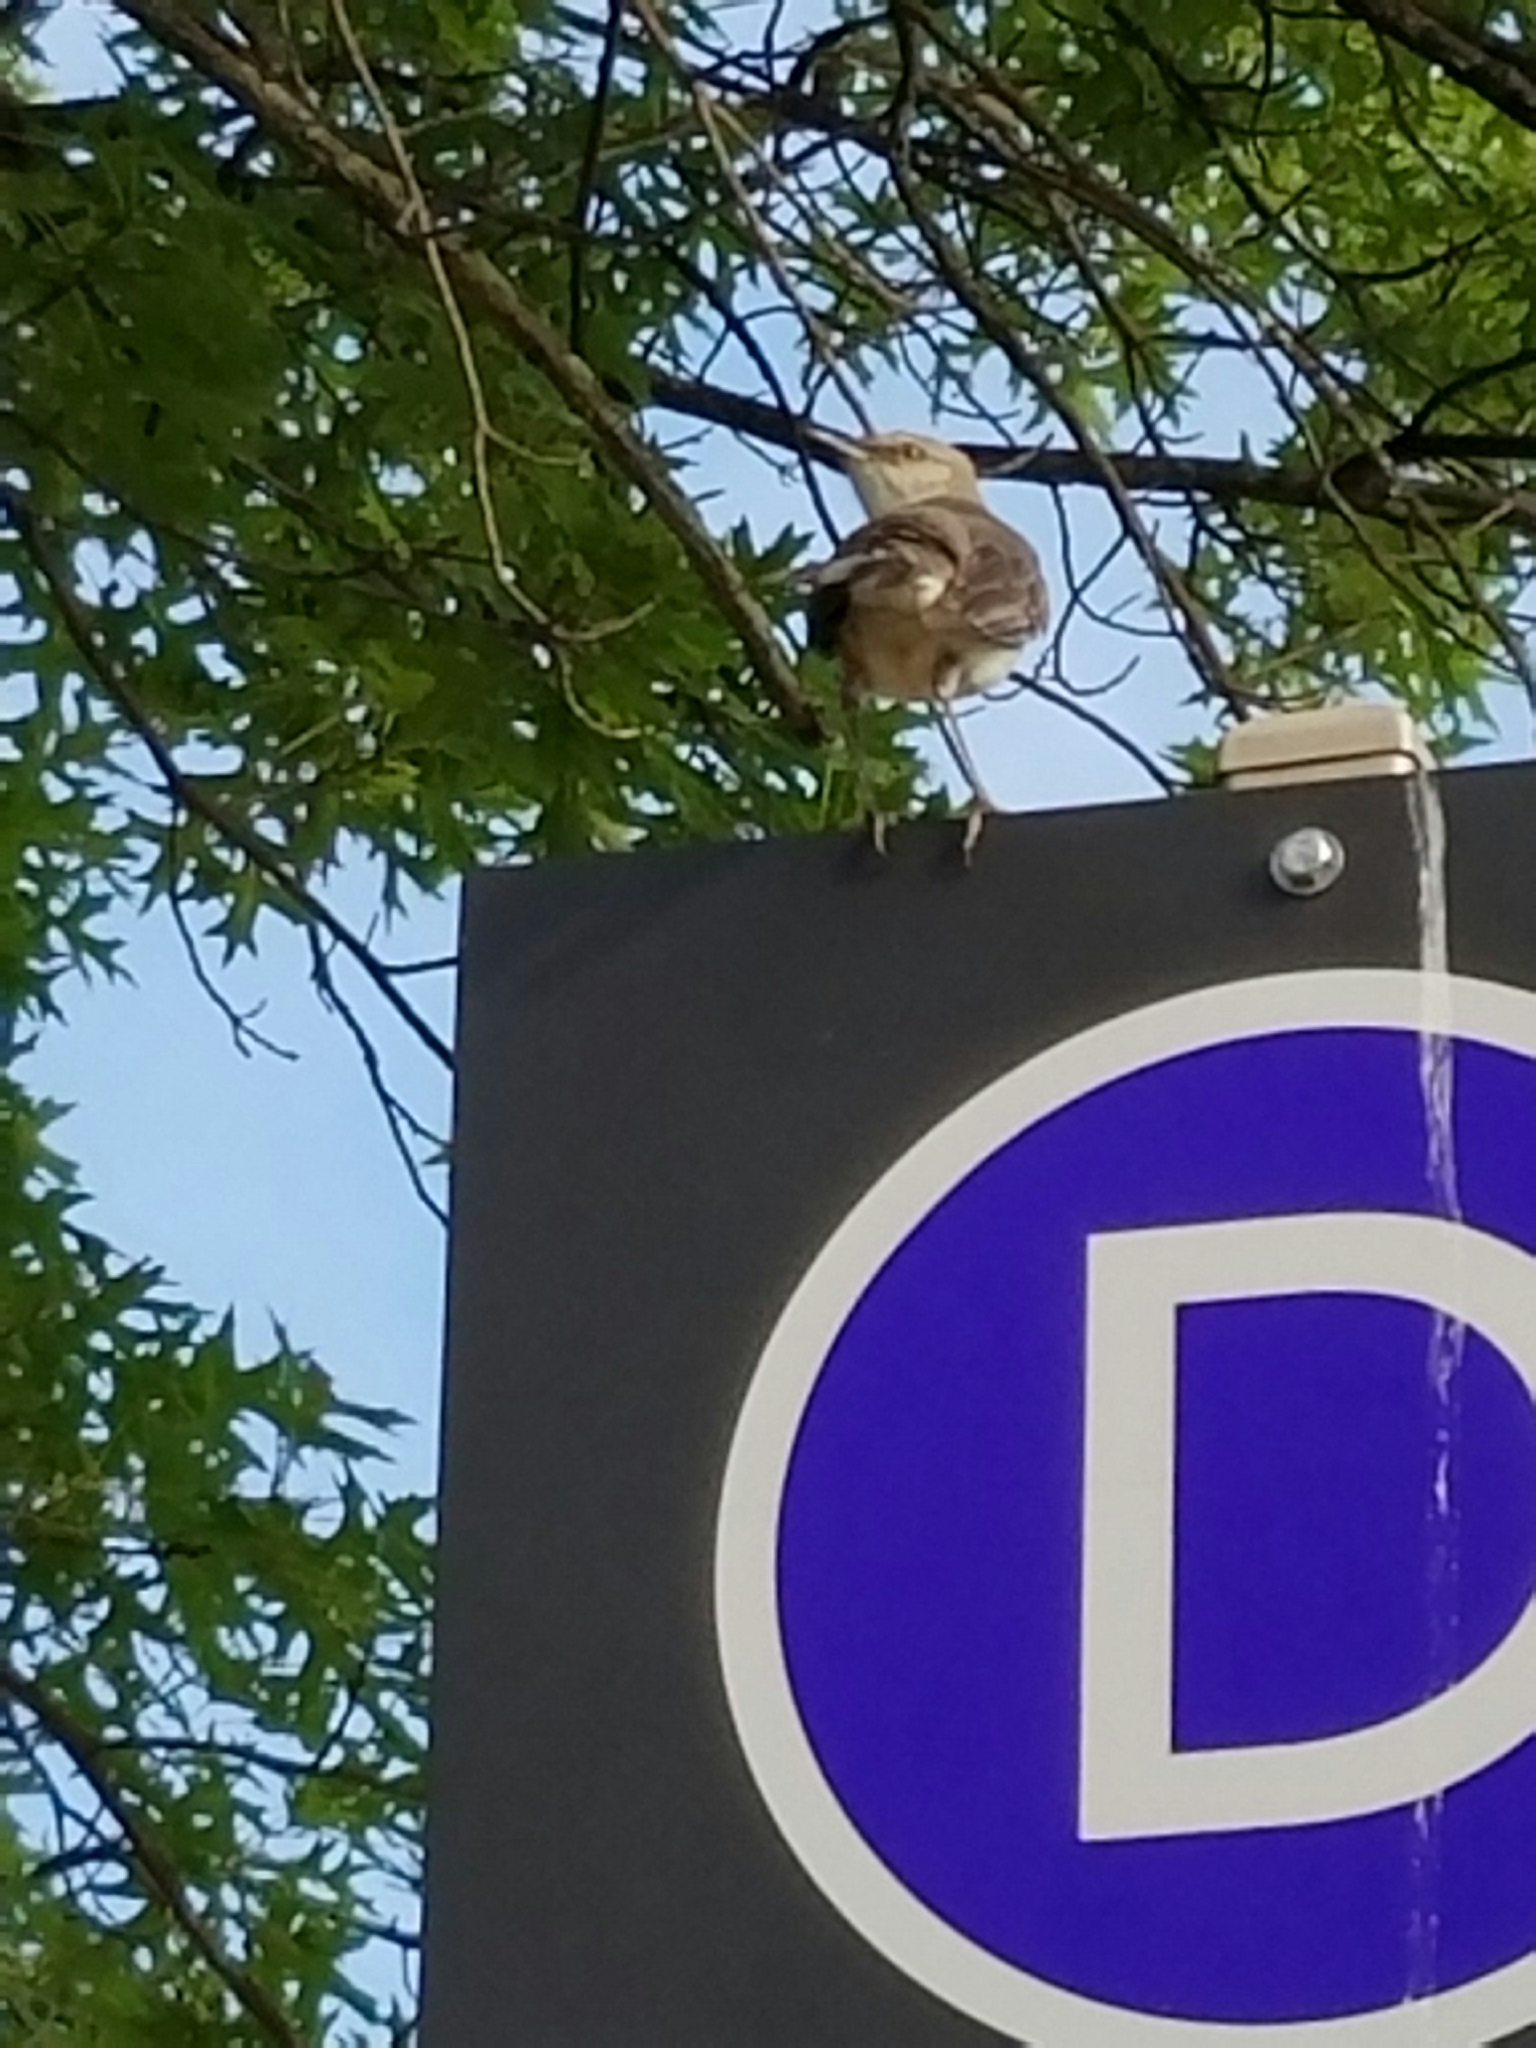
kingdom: Animalia
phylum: Chordata
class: Aves
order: Passeriformes
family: Mimidae
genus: Mimus
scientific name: Mimus polyglottos
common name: Northern mockingbird
